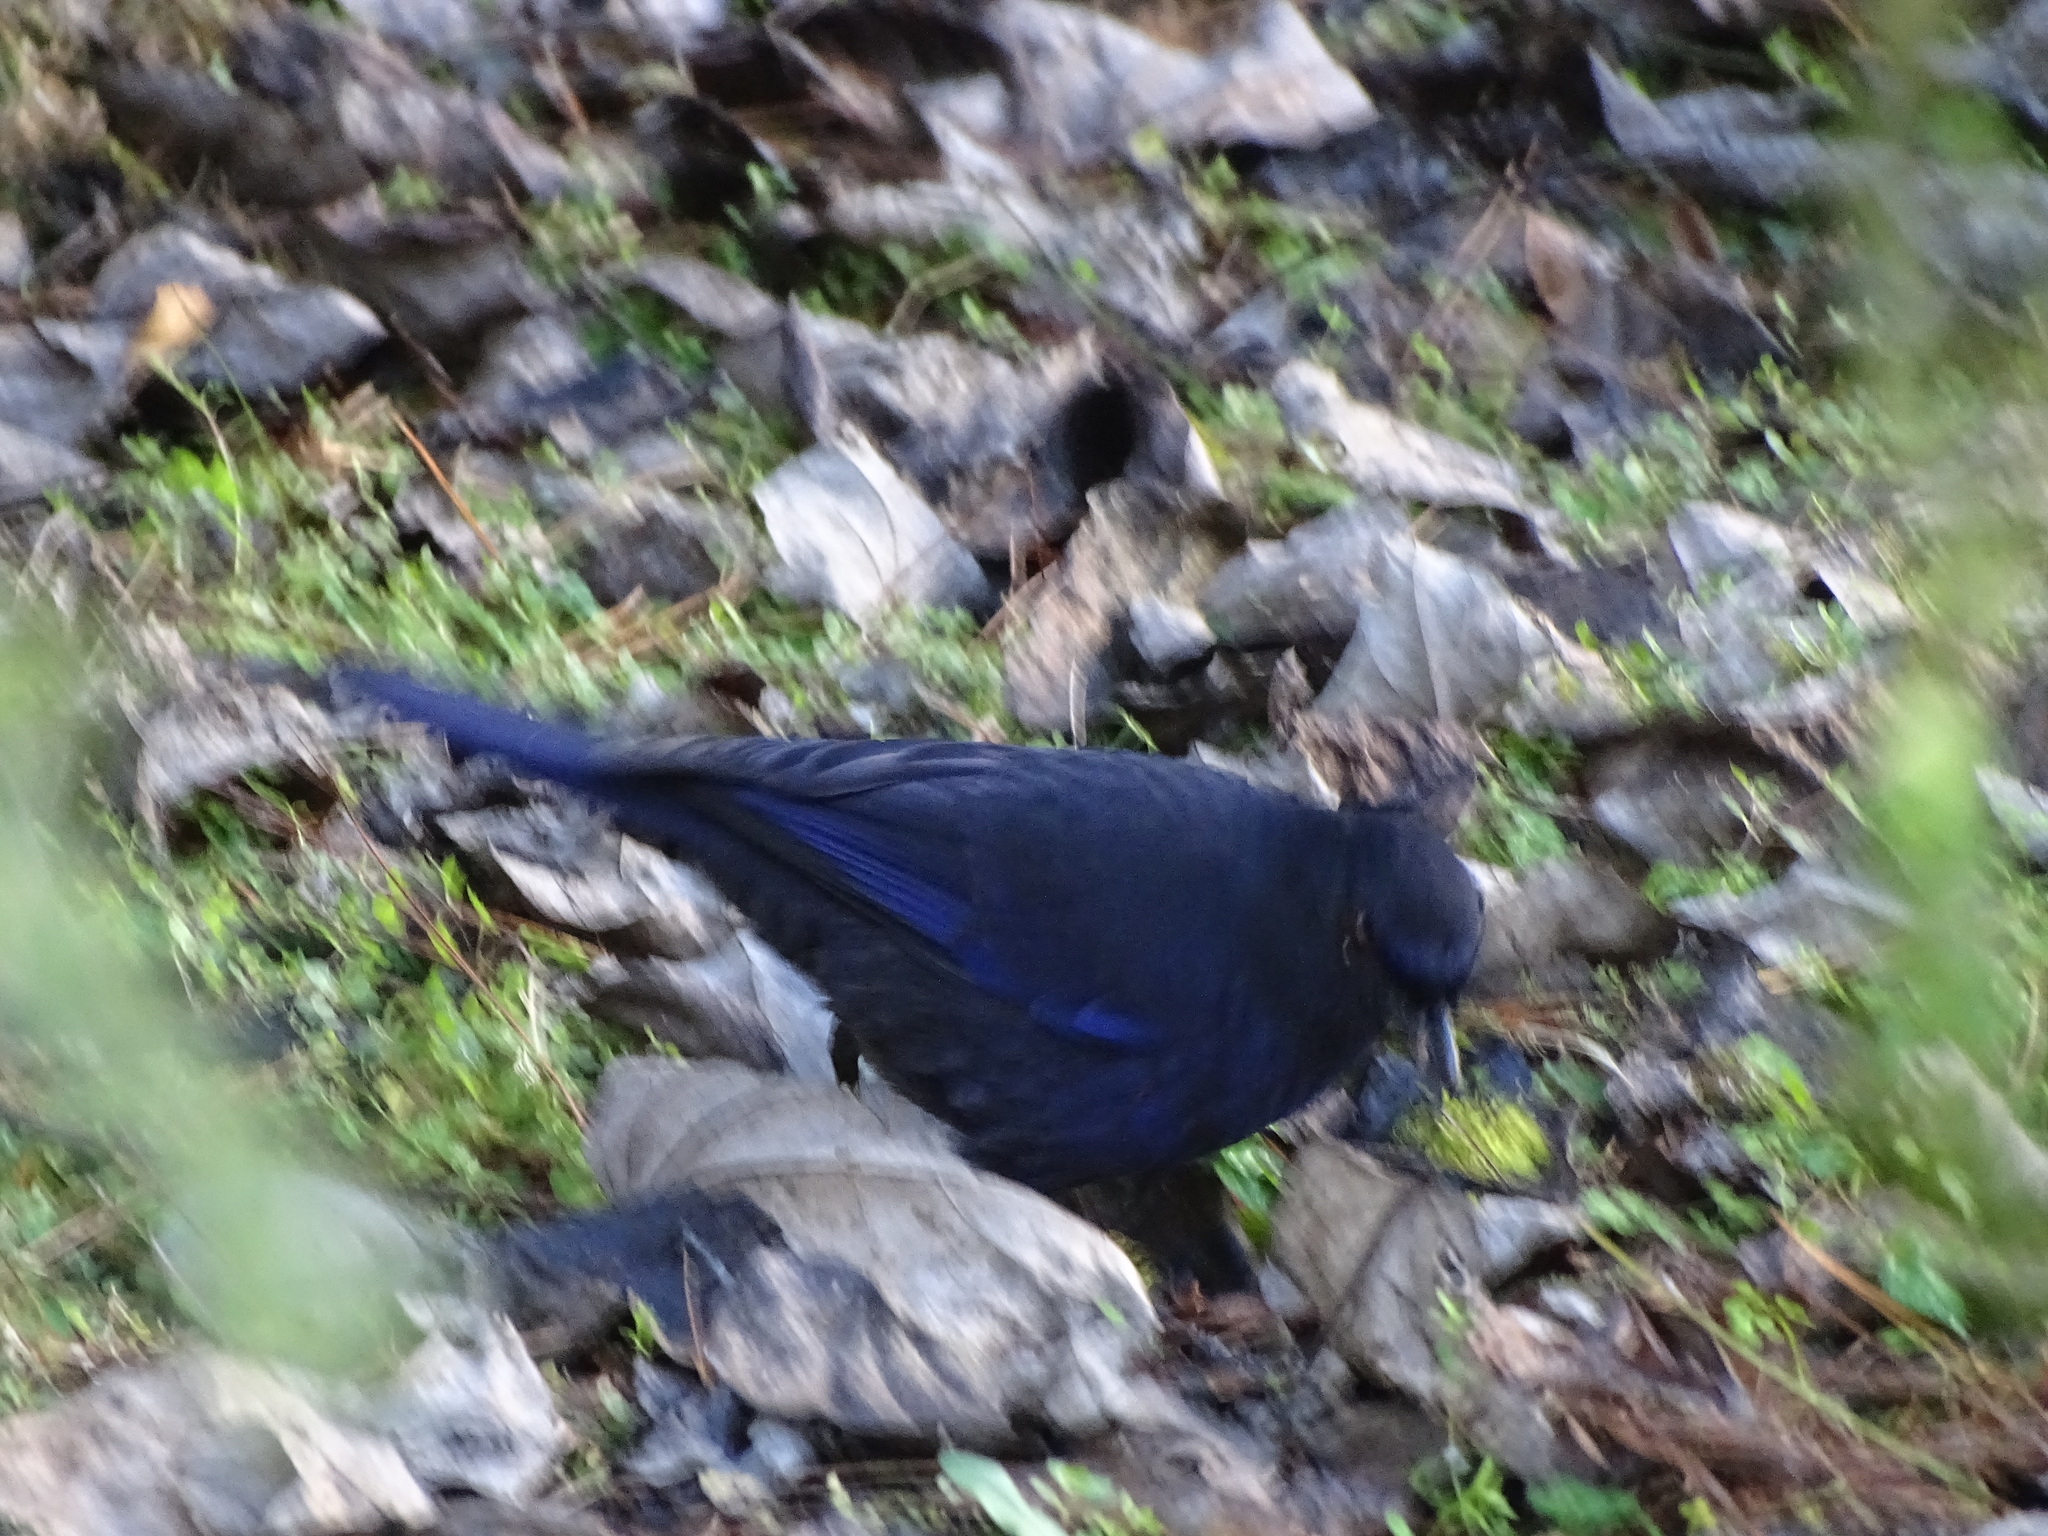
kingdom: Animalia
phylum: Chordata
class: Aves
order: Passeriformes
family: Muscicapidae
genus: Myophonus
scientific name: Myophonus insularis
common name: Taiwan whistling-thrush
